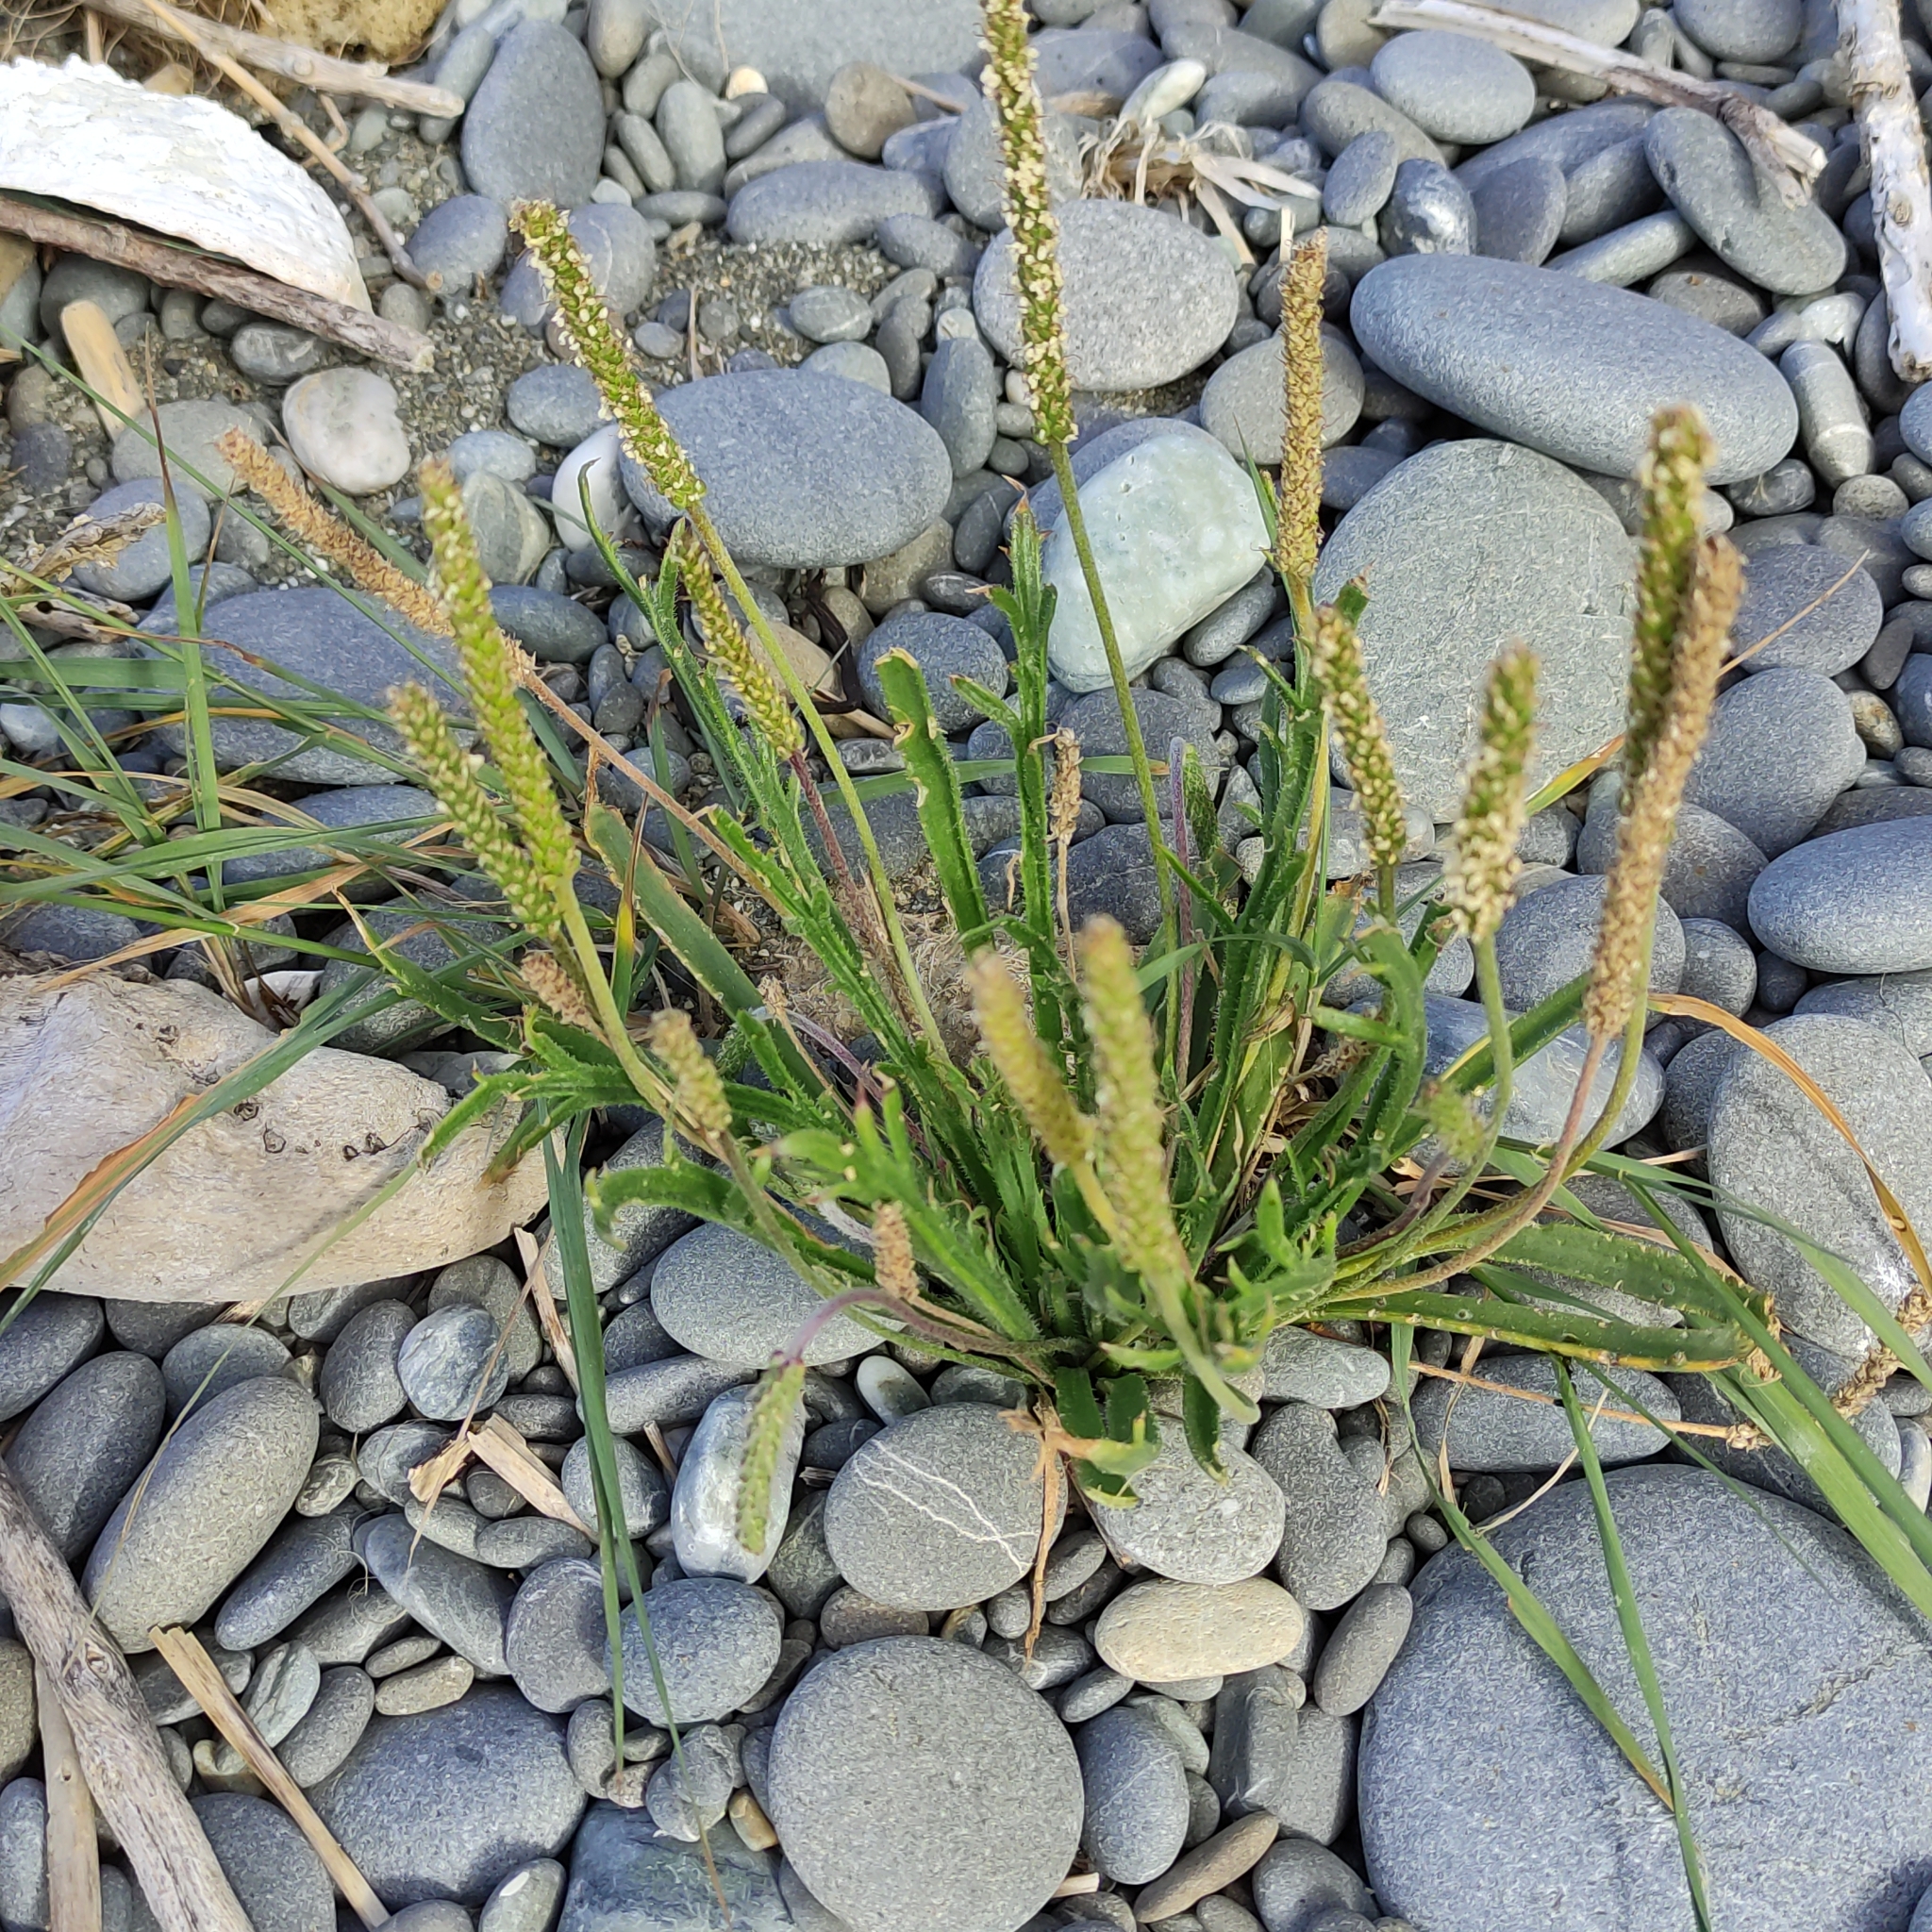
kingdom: Plantae
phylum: Tracheophyta
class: Magnoliopsida
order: Lamiales
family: Plantaginaceae
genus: Plantago
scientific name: Plantago coronopus
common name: Buck's-horn plantain
